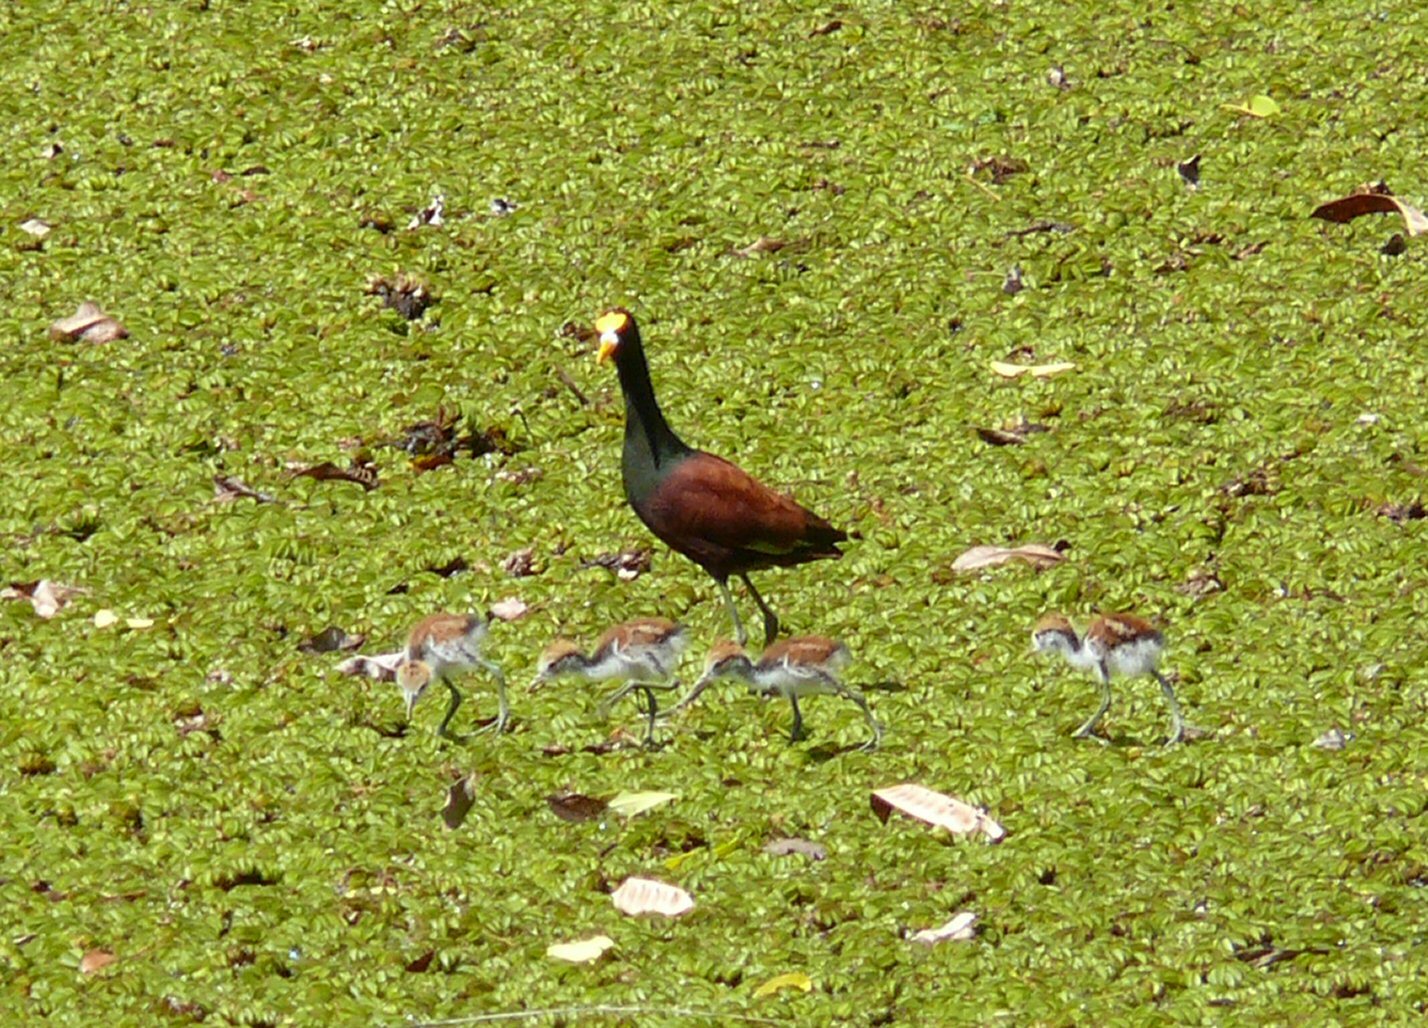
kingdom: Animalia
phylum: Chordata
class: Aves
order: Charadriiformes
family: Jacanidae
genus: Jacana
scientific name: Jacana spinosa
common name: Northern jacana
